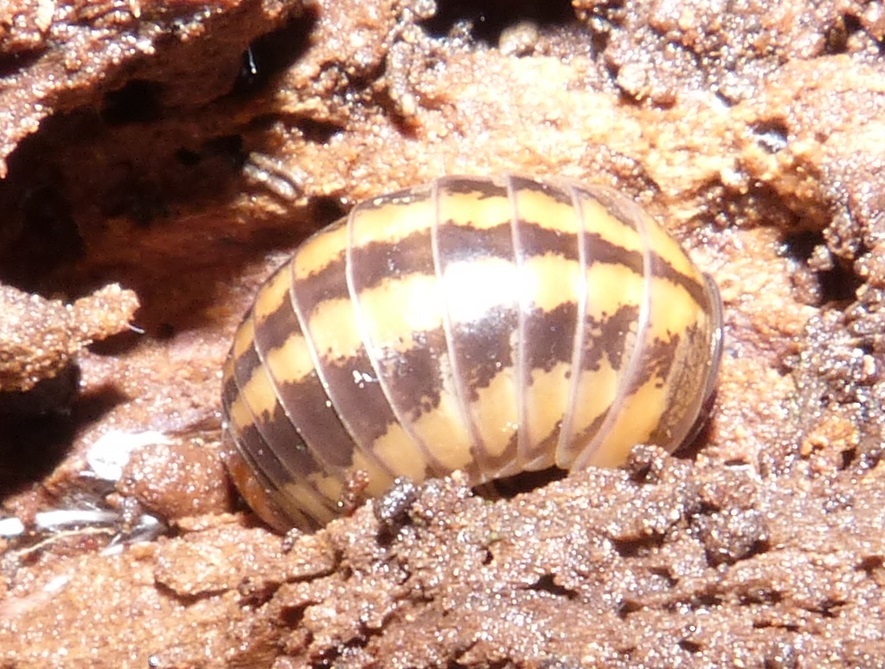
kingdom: Animalia
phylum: Arthropoda
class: Diplopoda
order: Glomerida
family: Glomeridae
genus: Glomeris
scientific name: Glomeris connexa
